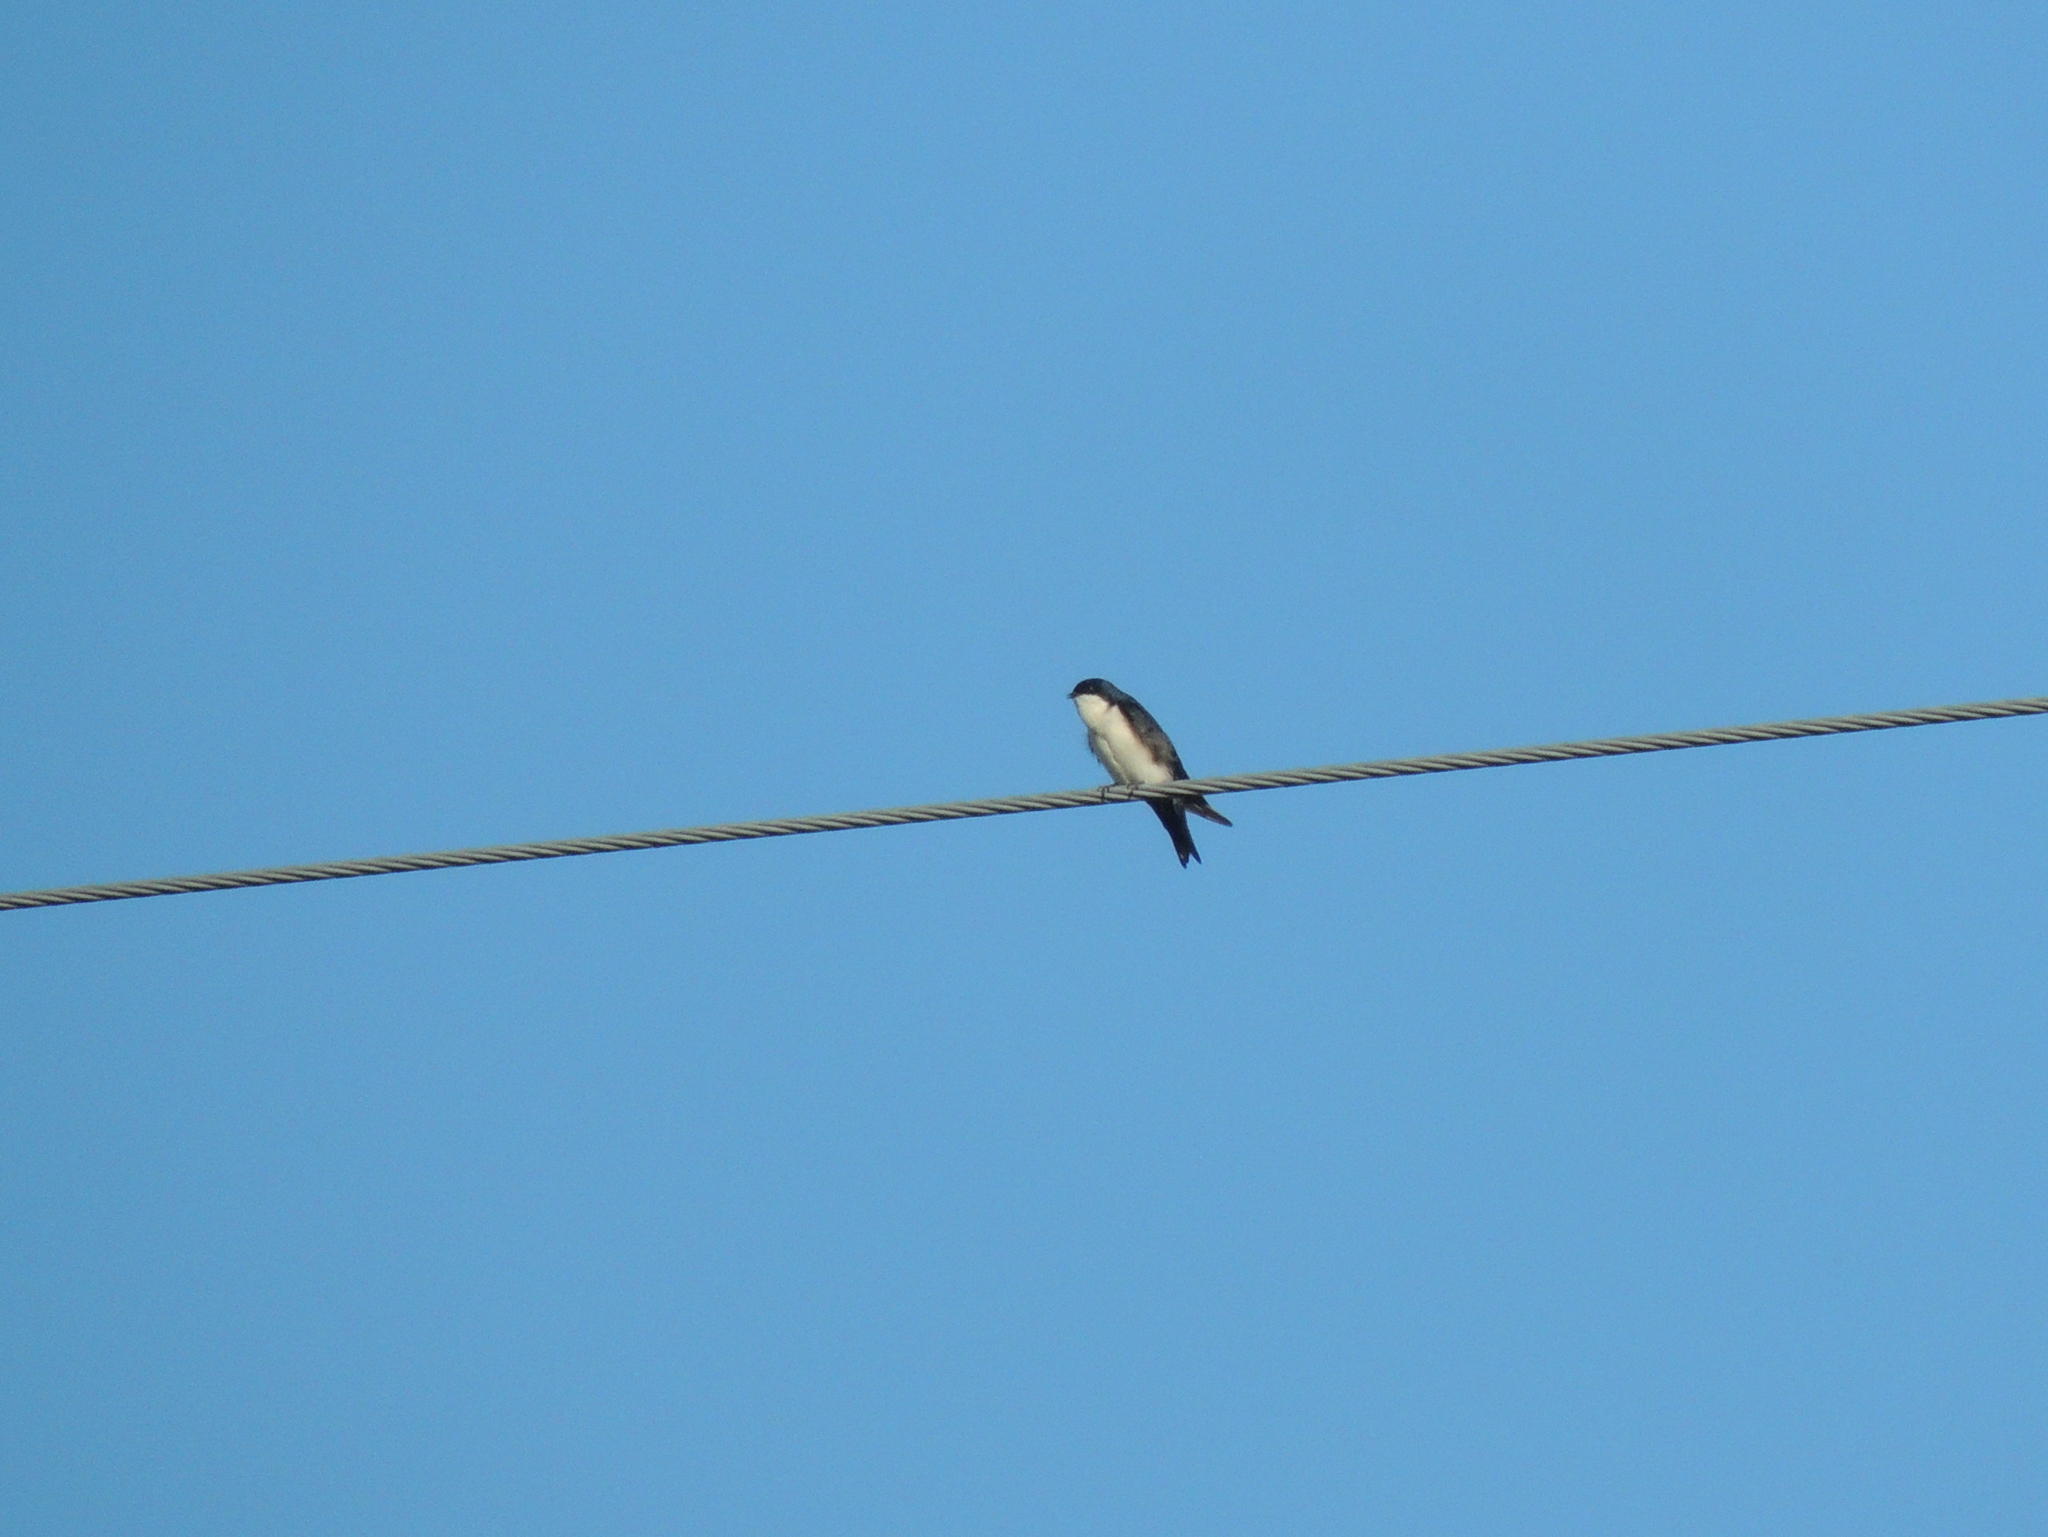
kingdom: Animalia
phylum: Chordata
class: Aves
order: Passeriformes
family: Hirundinidae
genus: Notiochelidon
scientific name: Notiochelidon cyanoleuca
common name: Blue-and-white swallow
